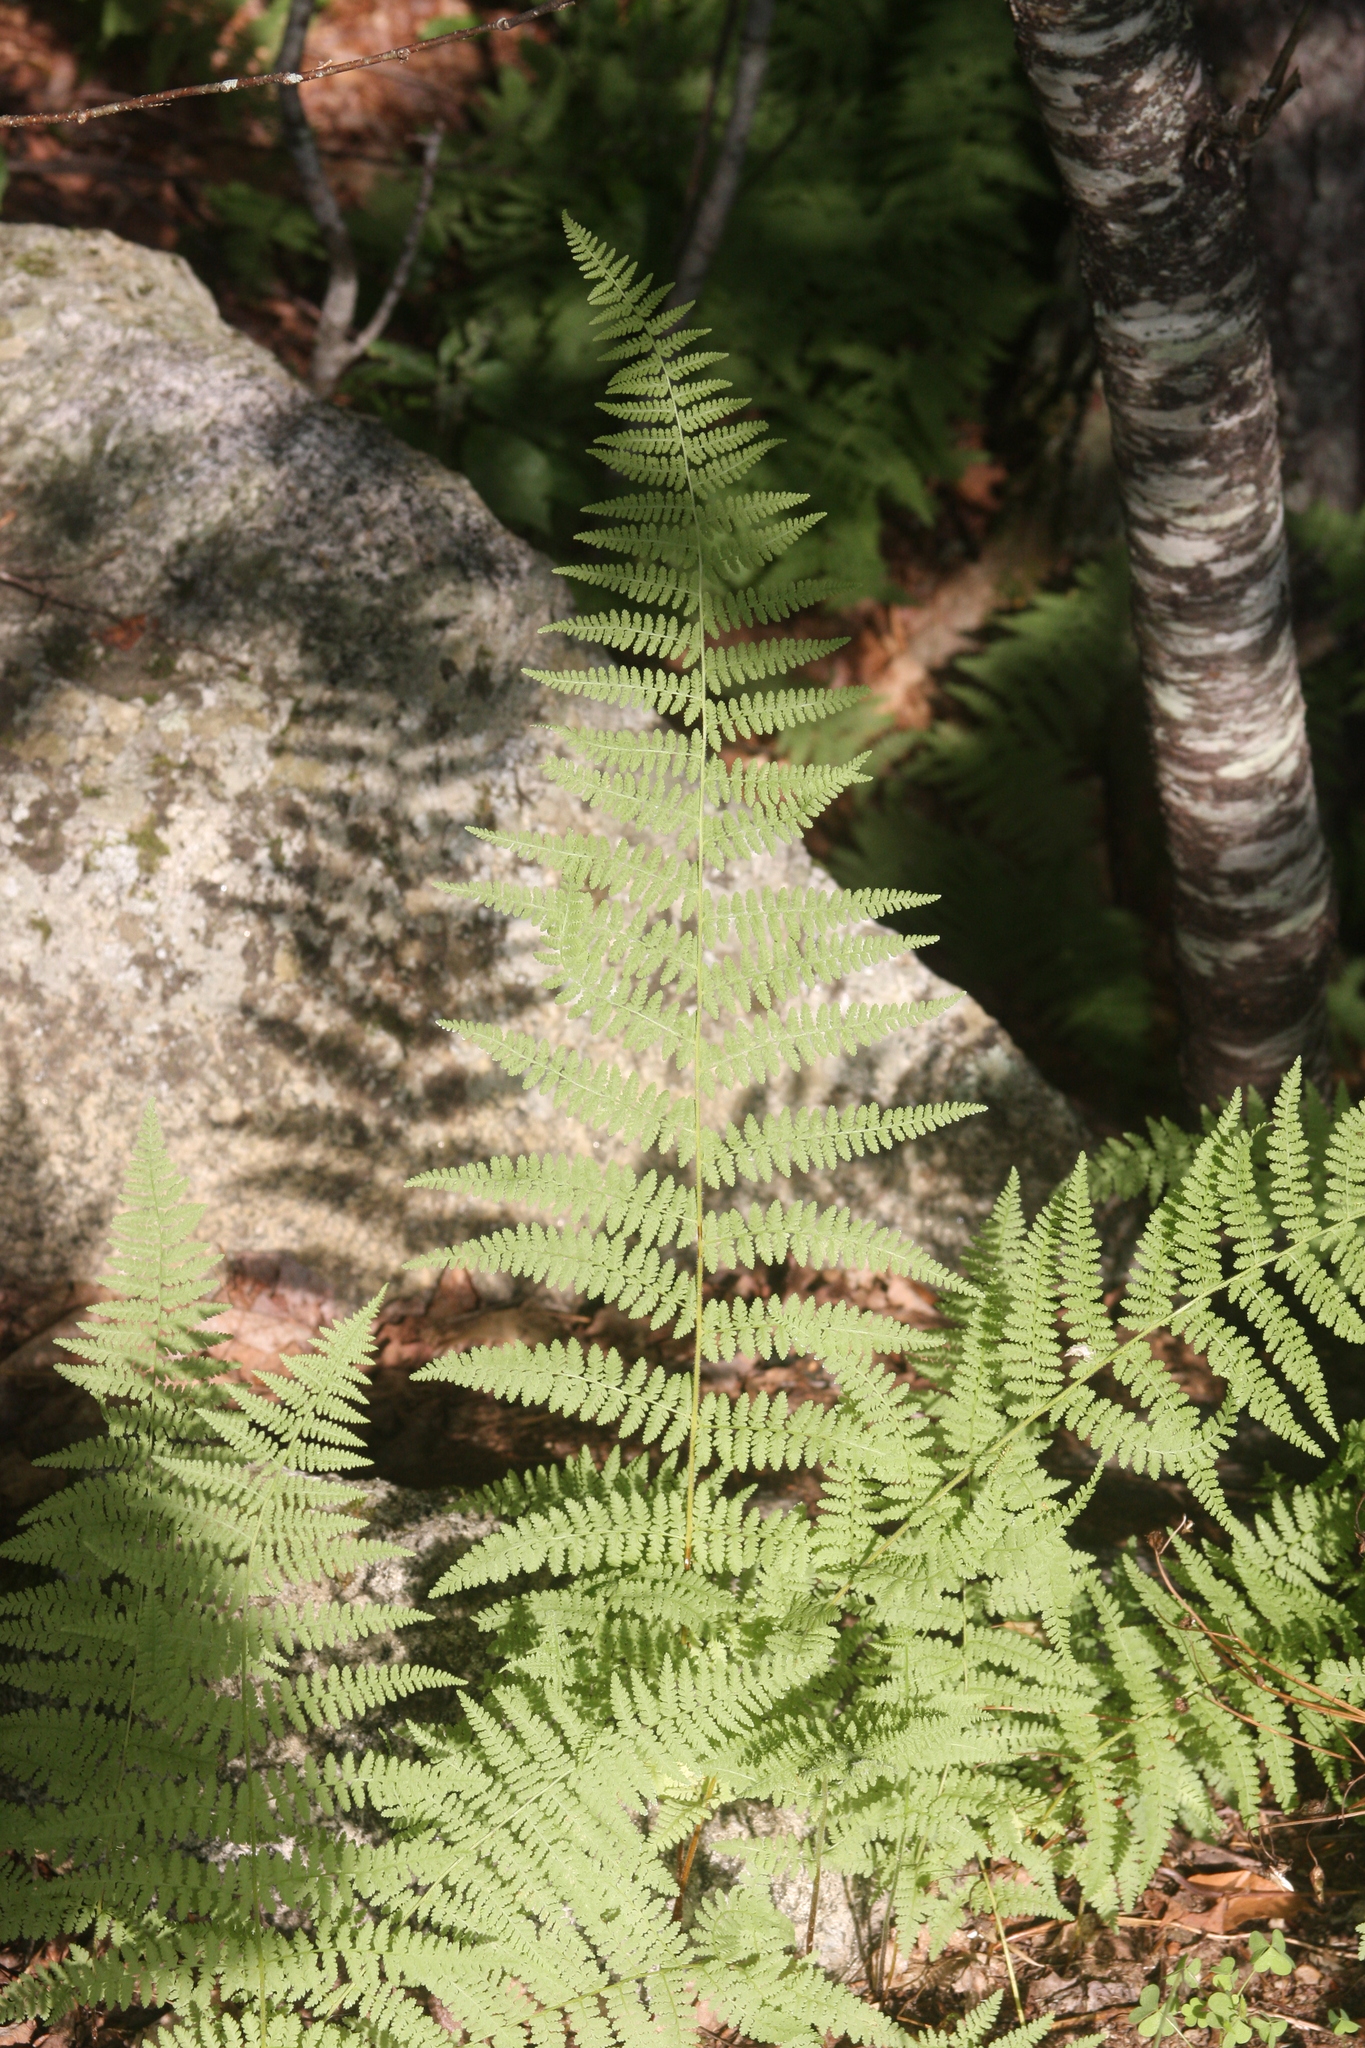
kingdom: Plantae
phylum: Tracheophyta
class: Polypodiopsida
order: Polypodiales
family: Dennstaedtiaceae
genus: Sitobolium
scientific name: Sitobolium punctilobum
